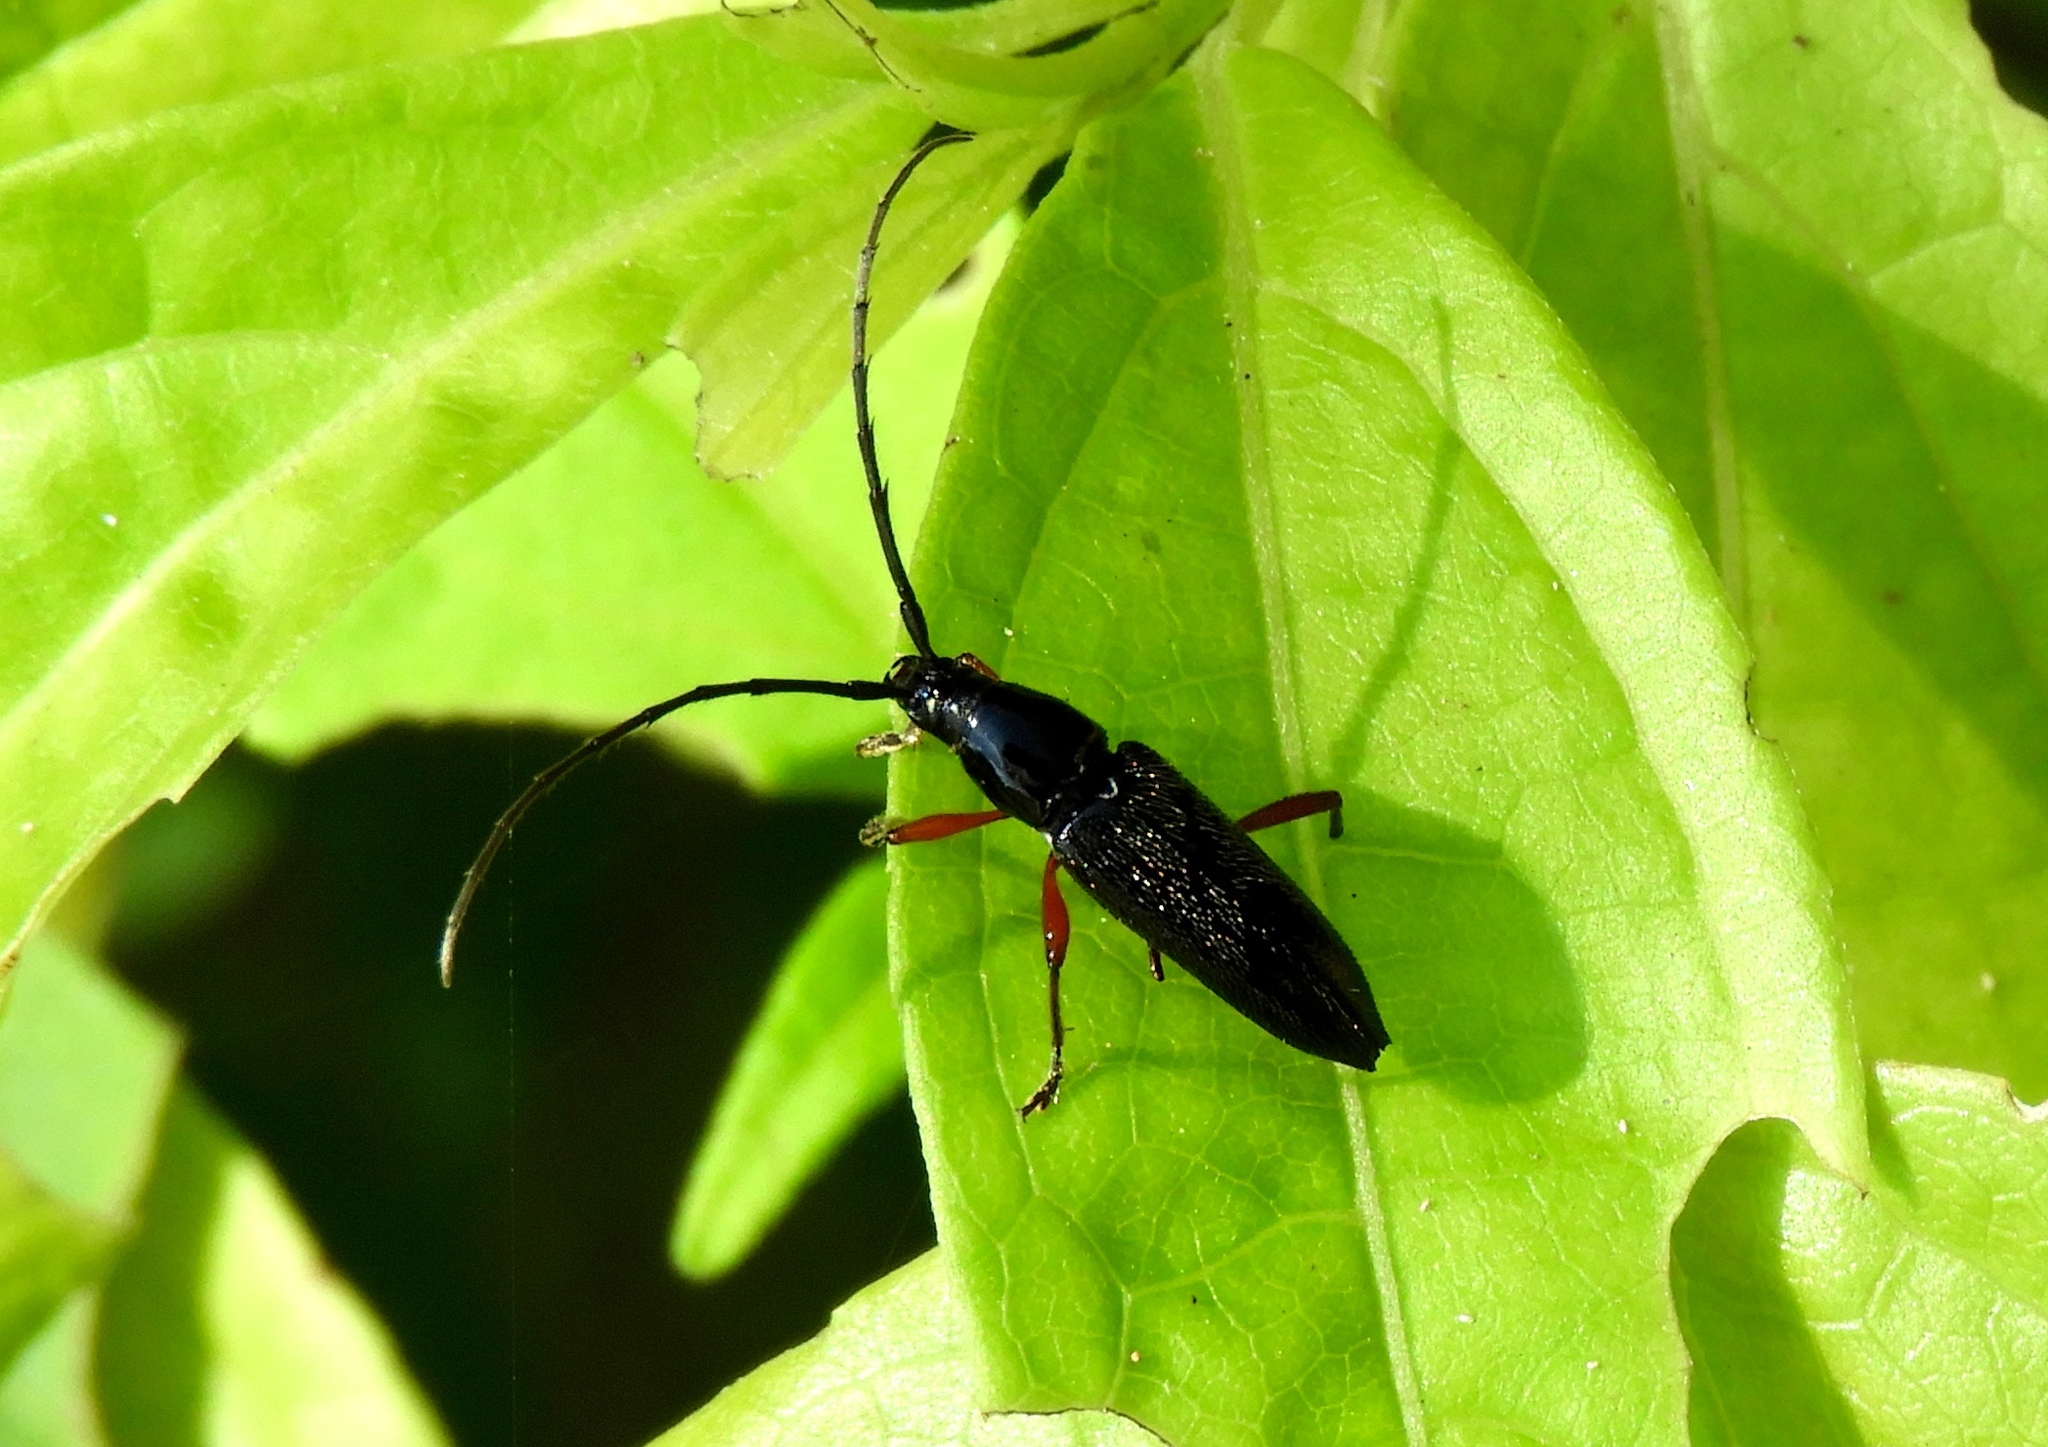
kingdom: Animalia
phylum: Arthropoda
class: Insecta
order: Coleoptera
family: Cerambycidae
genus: Stenosphenus
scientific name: Stenosphenus
